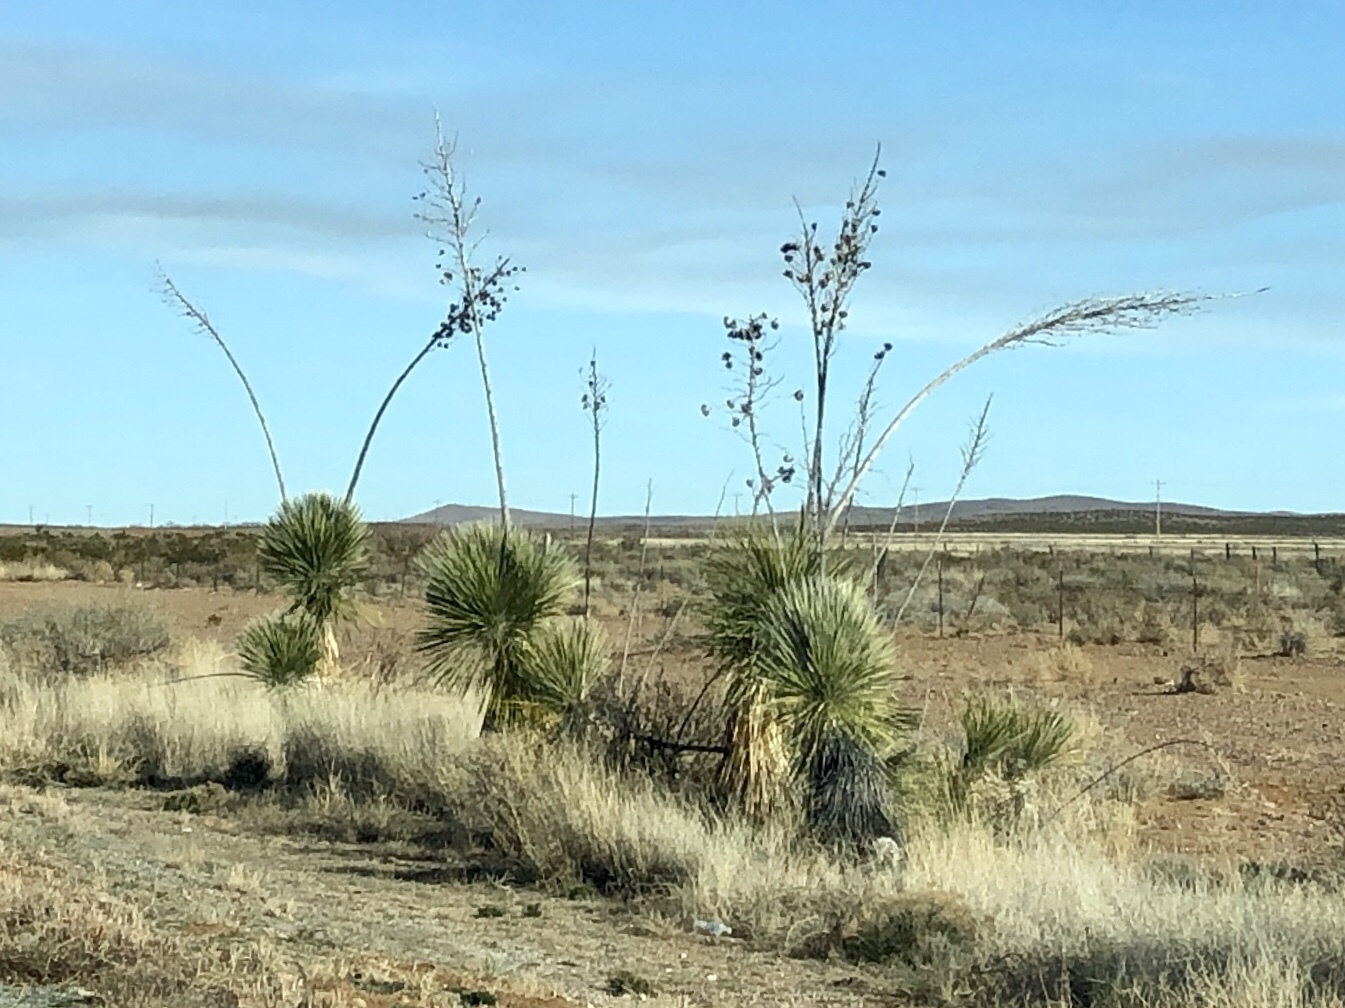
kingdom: Plantae
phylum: Tracheophyta
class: Liliopsida
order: Asparagales
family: Asparagaceae
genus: Yucca
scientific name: Yucca elata
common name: Palmella
